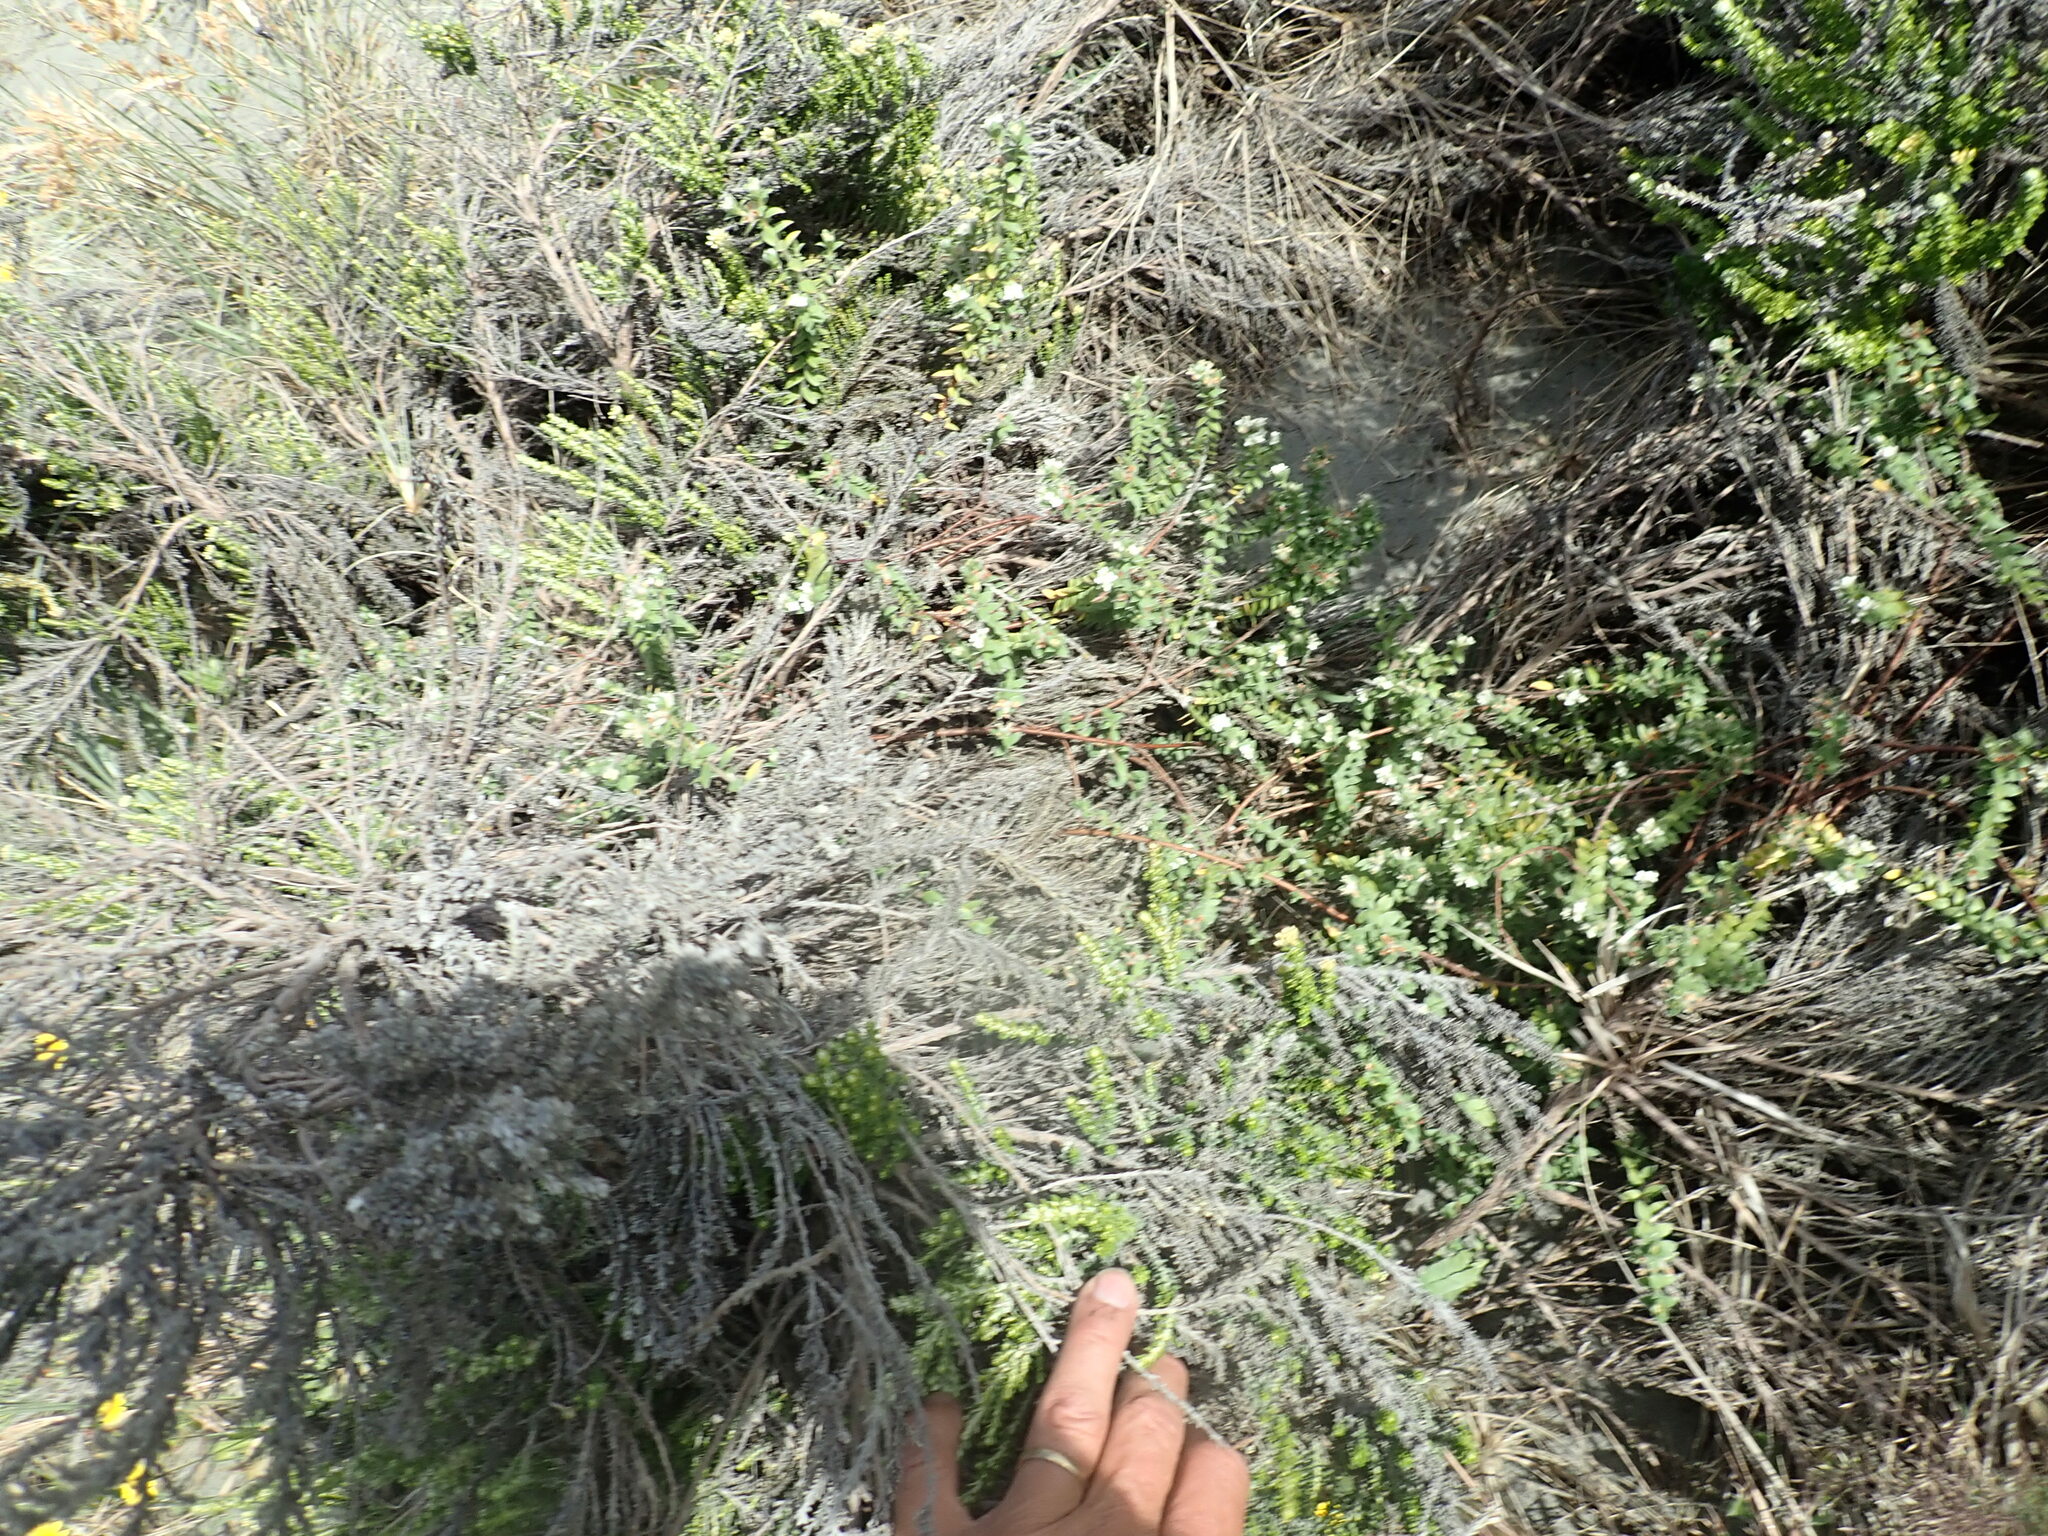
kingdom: Plantae
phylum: Tracheophyta
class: Magnoliopsida
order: Asterales
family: Asteraceae
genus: Ozothamnus
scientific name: Ozothamnus leptophyllus
